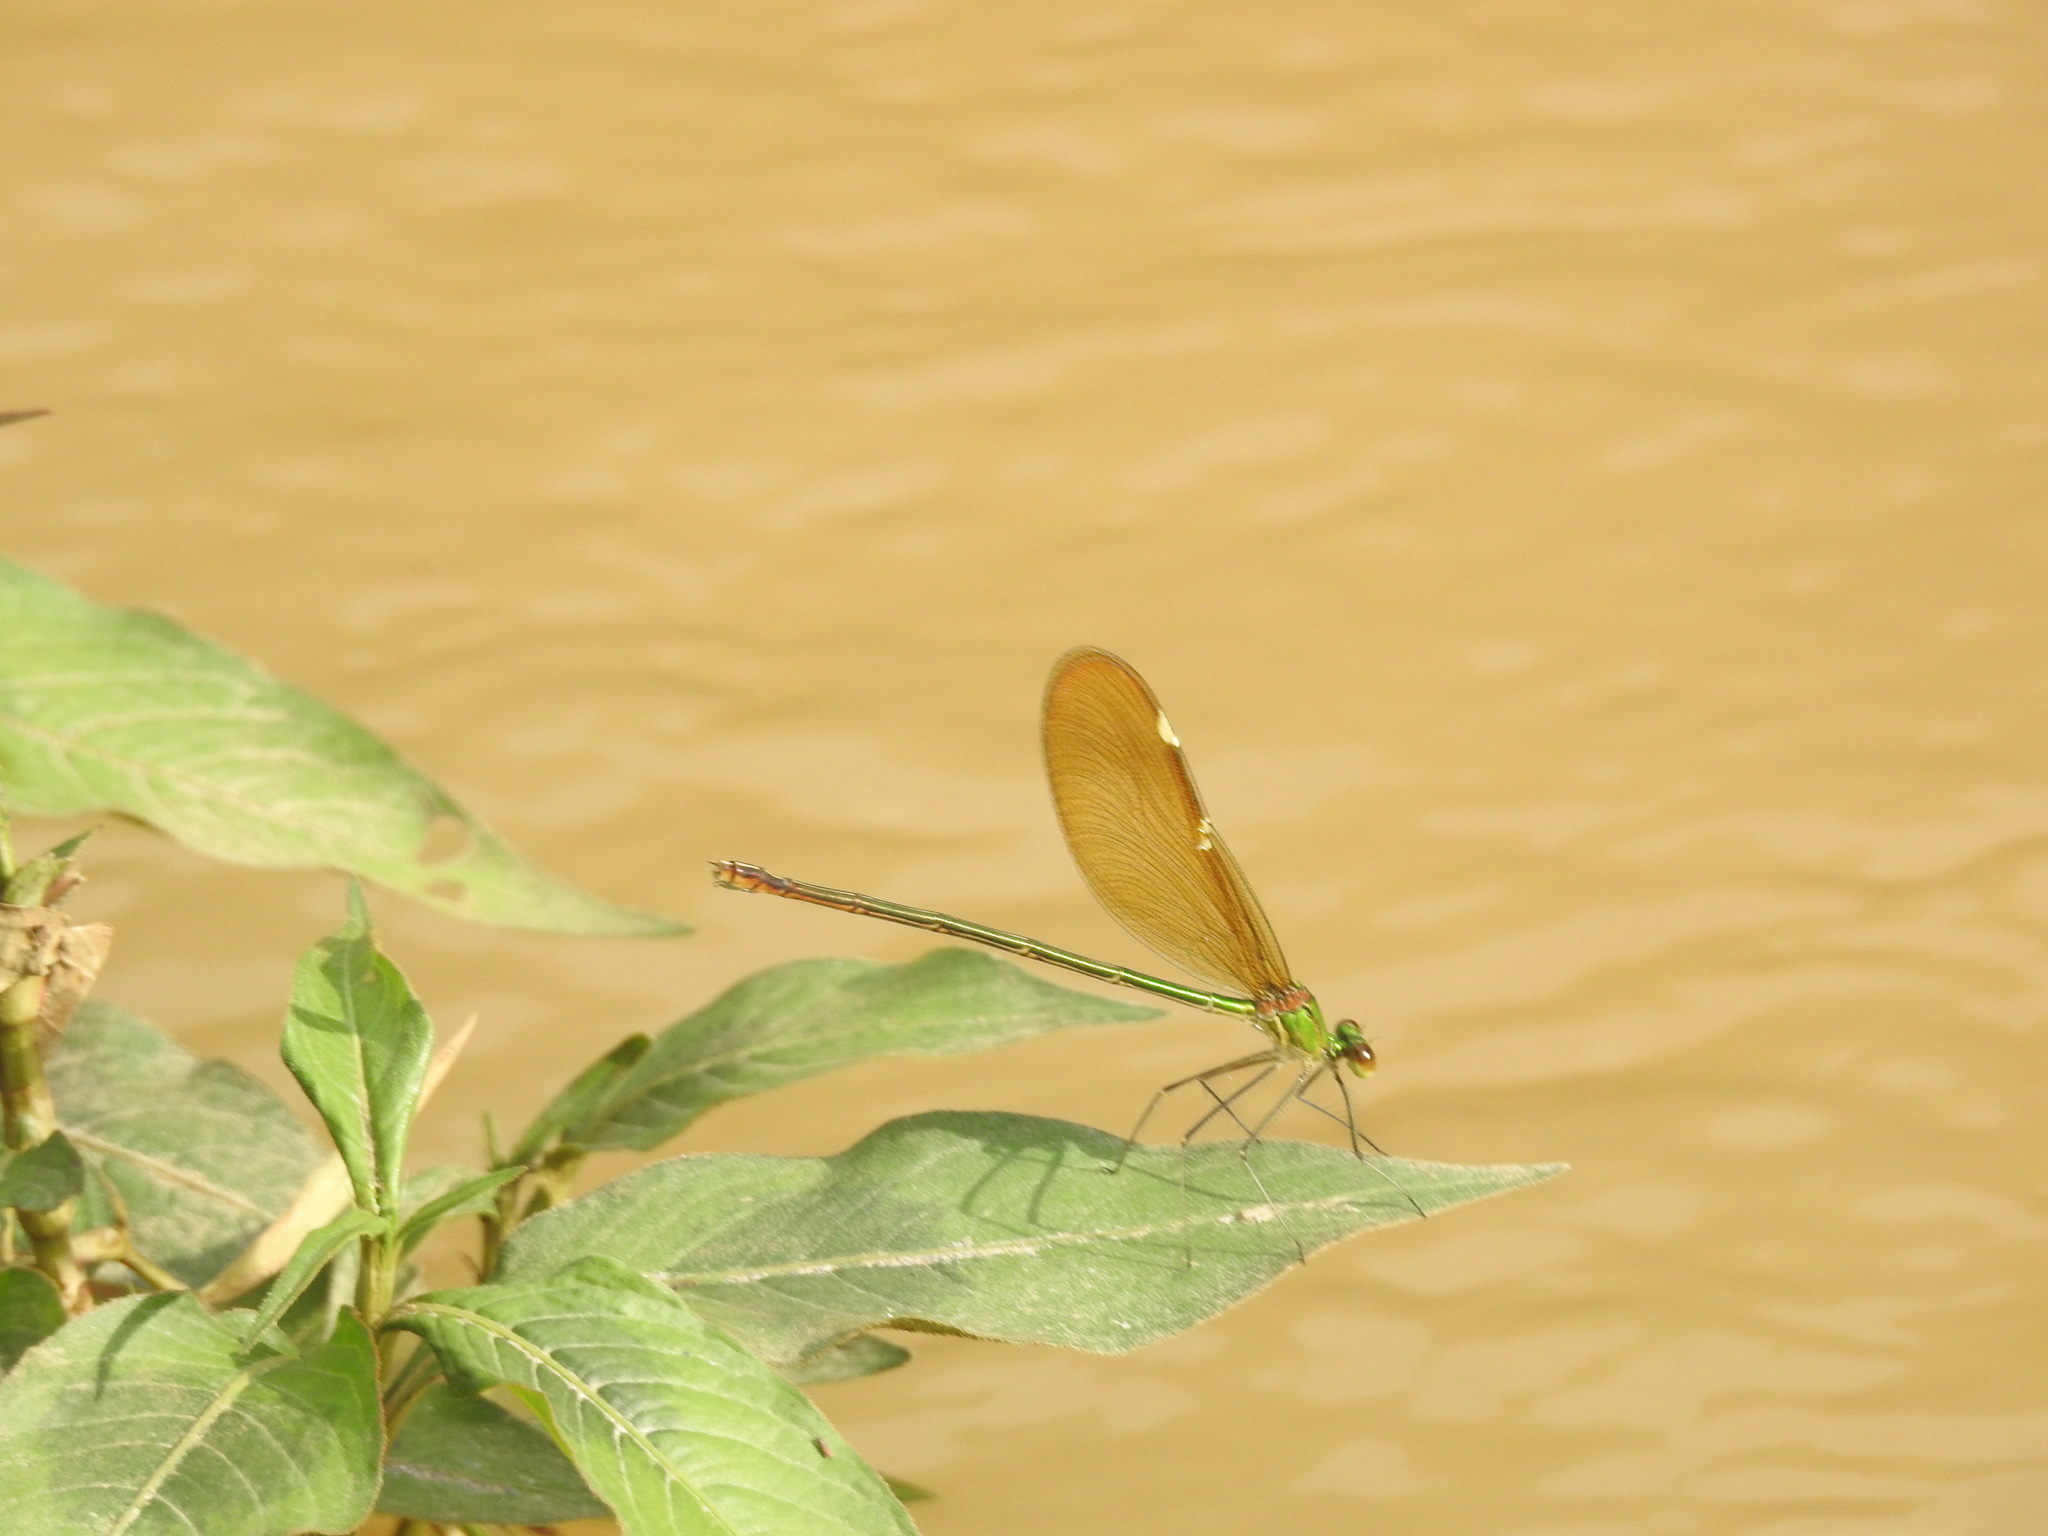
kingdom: Animalia
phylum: Arthropoda
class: Insecta
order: Odonata
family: Calopterygidae
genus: Neurobasis
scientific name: Neurobasis chinensis
